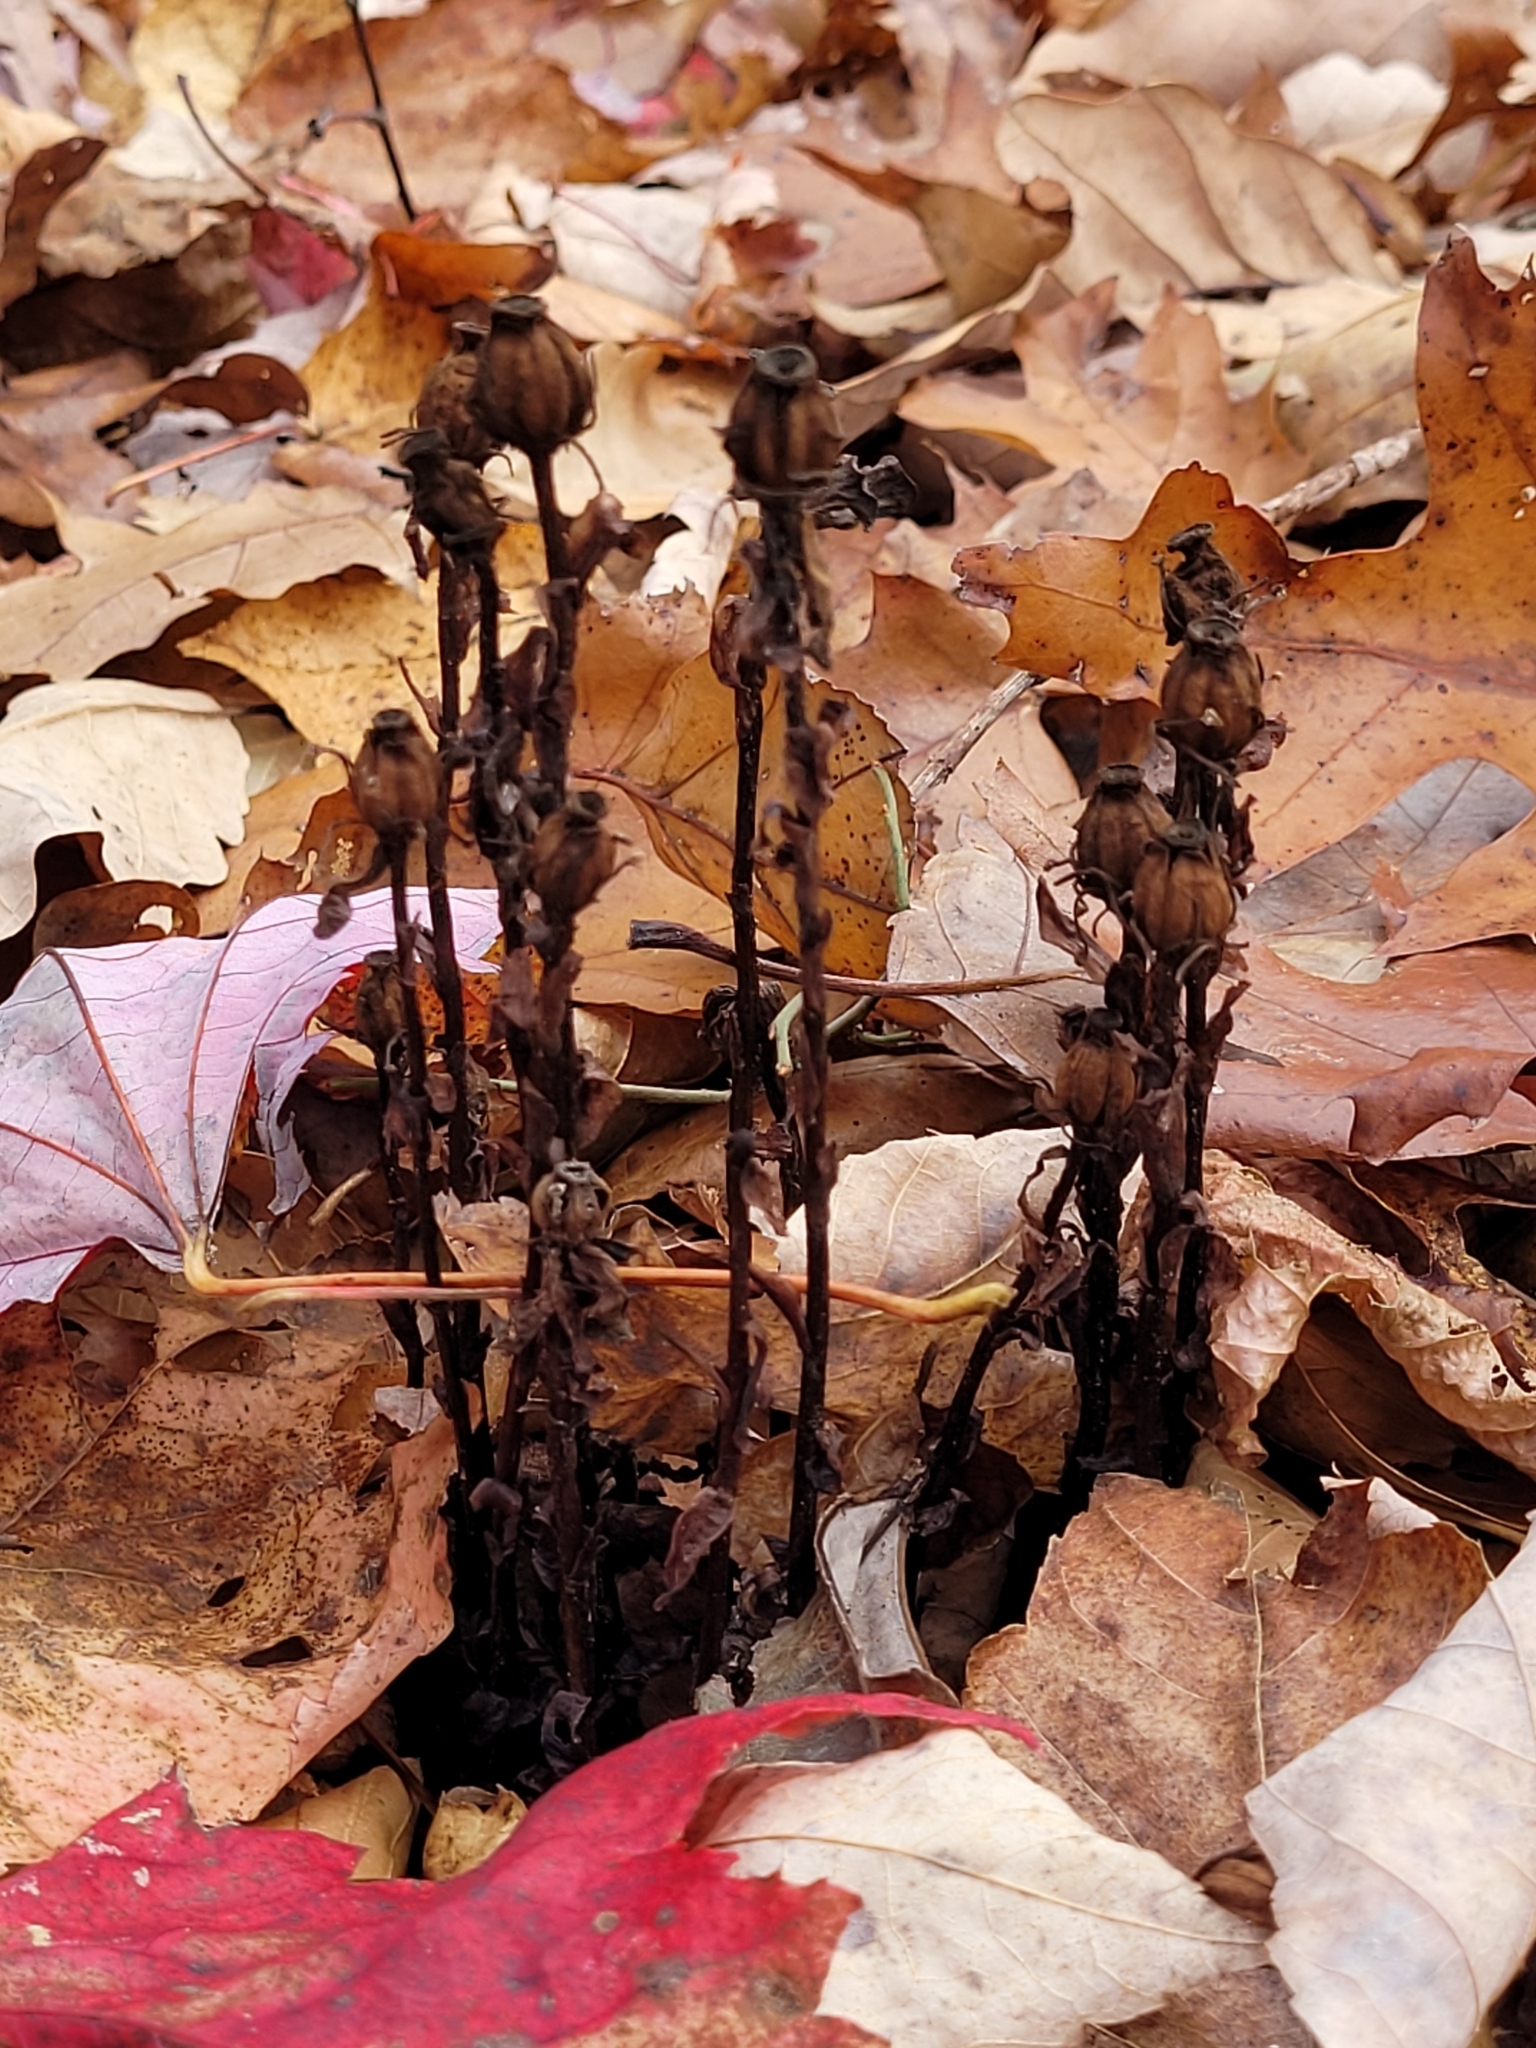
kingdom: Plantae
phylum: Tracheophyta
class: Magnoliopsida
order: Ericales
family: Ericaceae
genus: Monotropa
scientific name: Monotropa uniflora
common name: Convulsion root
